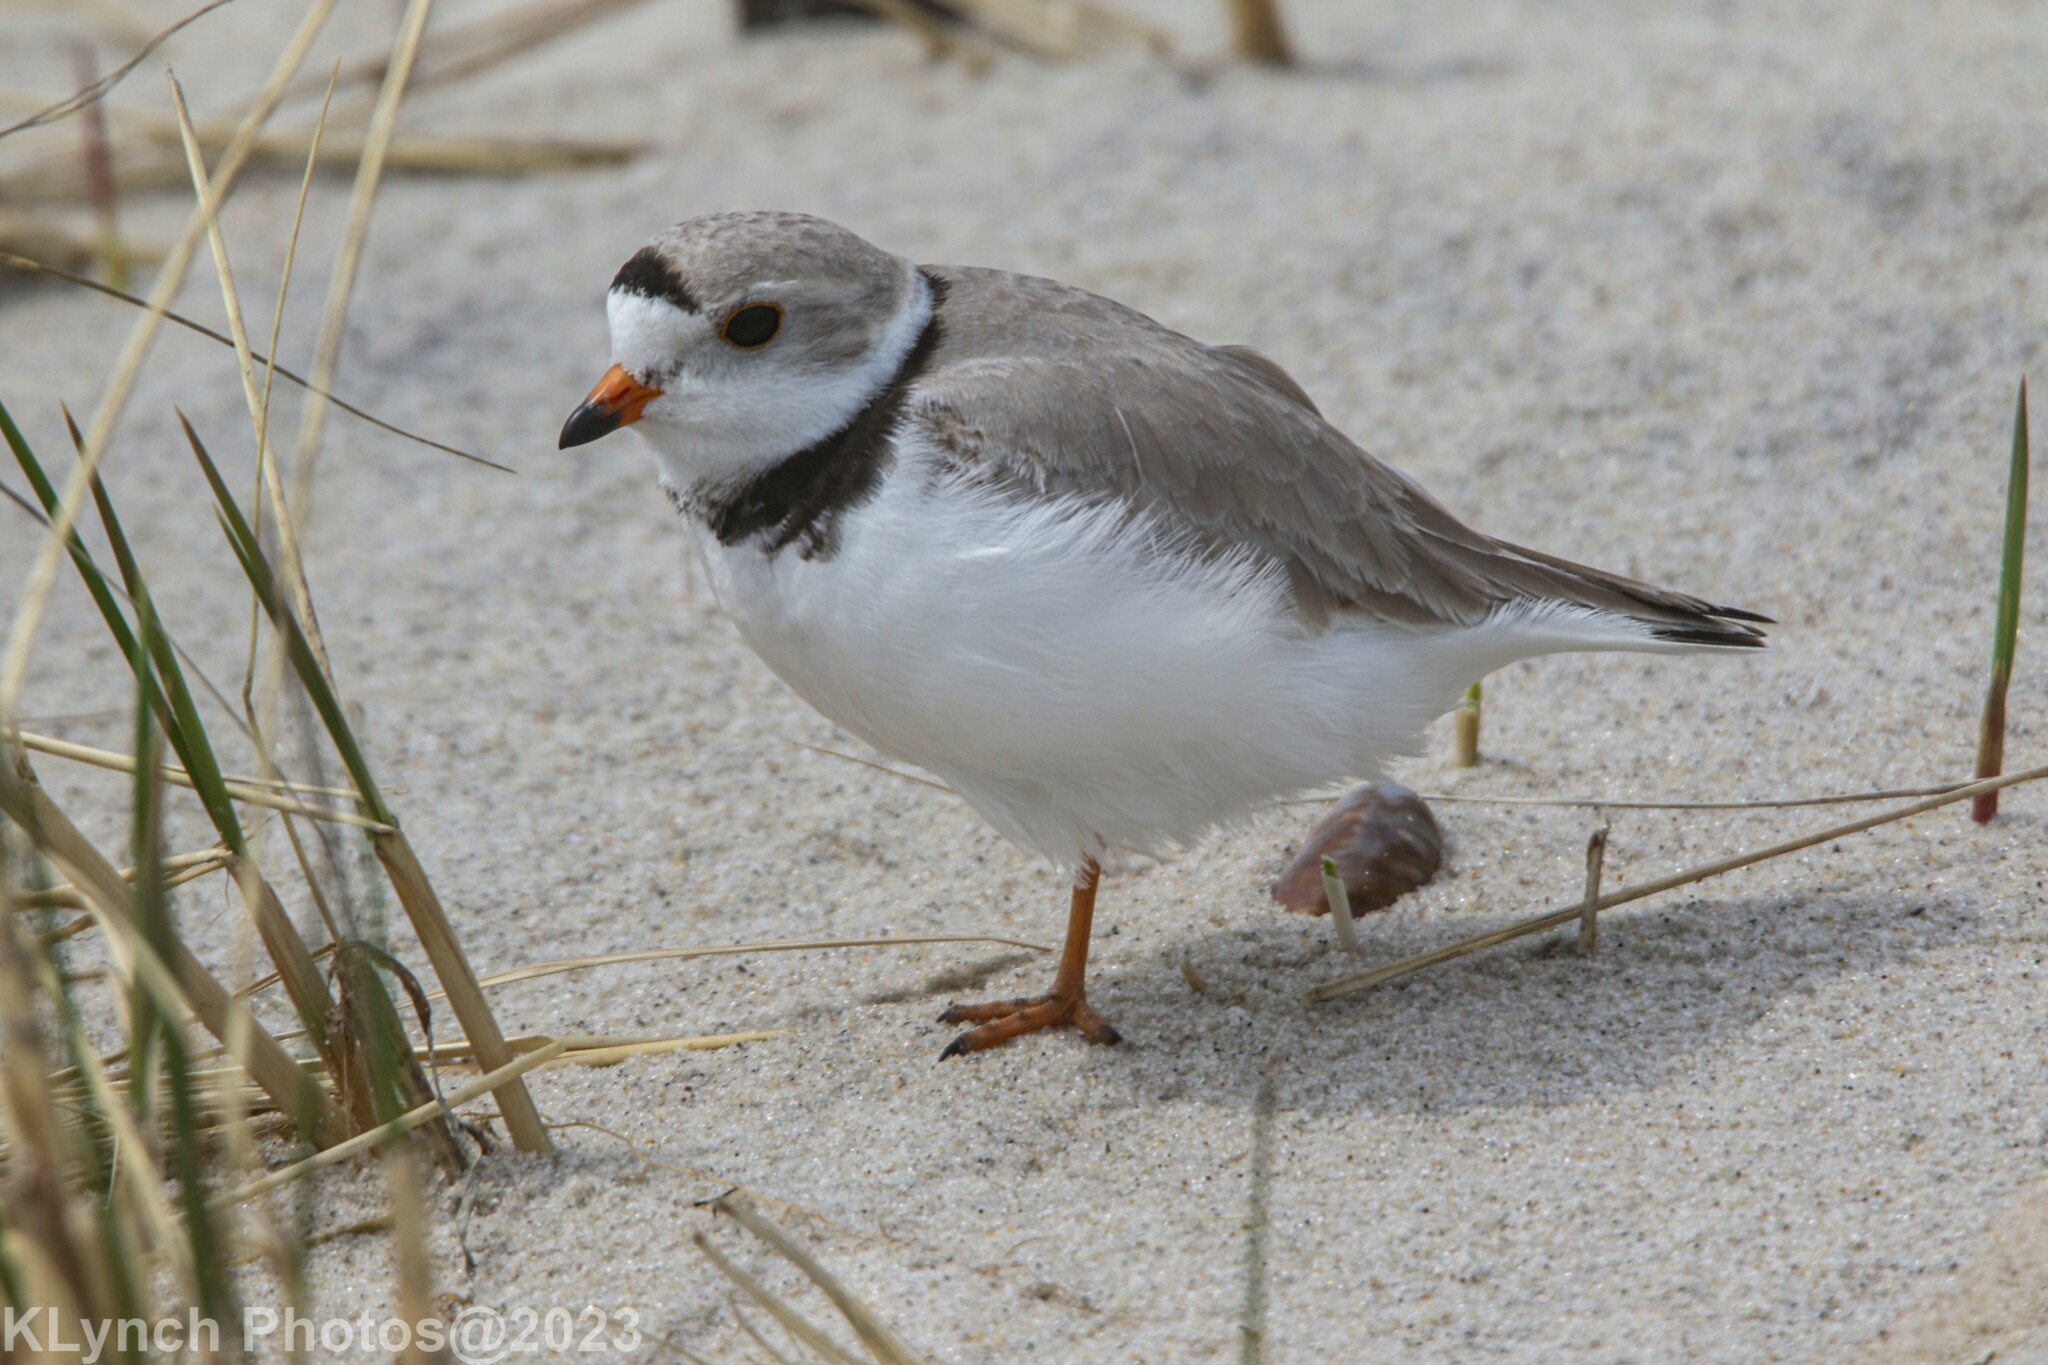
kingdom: Animalia
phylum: Chordata
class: Aves
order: Charadriiformes
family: Charadriidae
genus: Charadrius
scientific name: Charadrius melodus
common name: Piping plover
